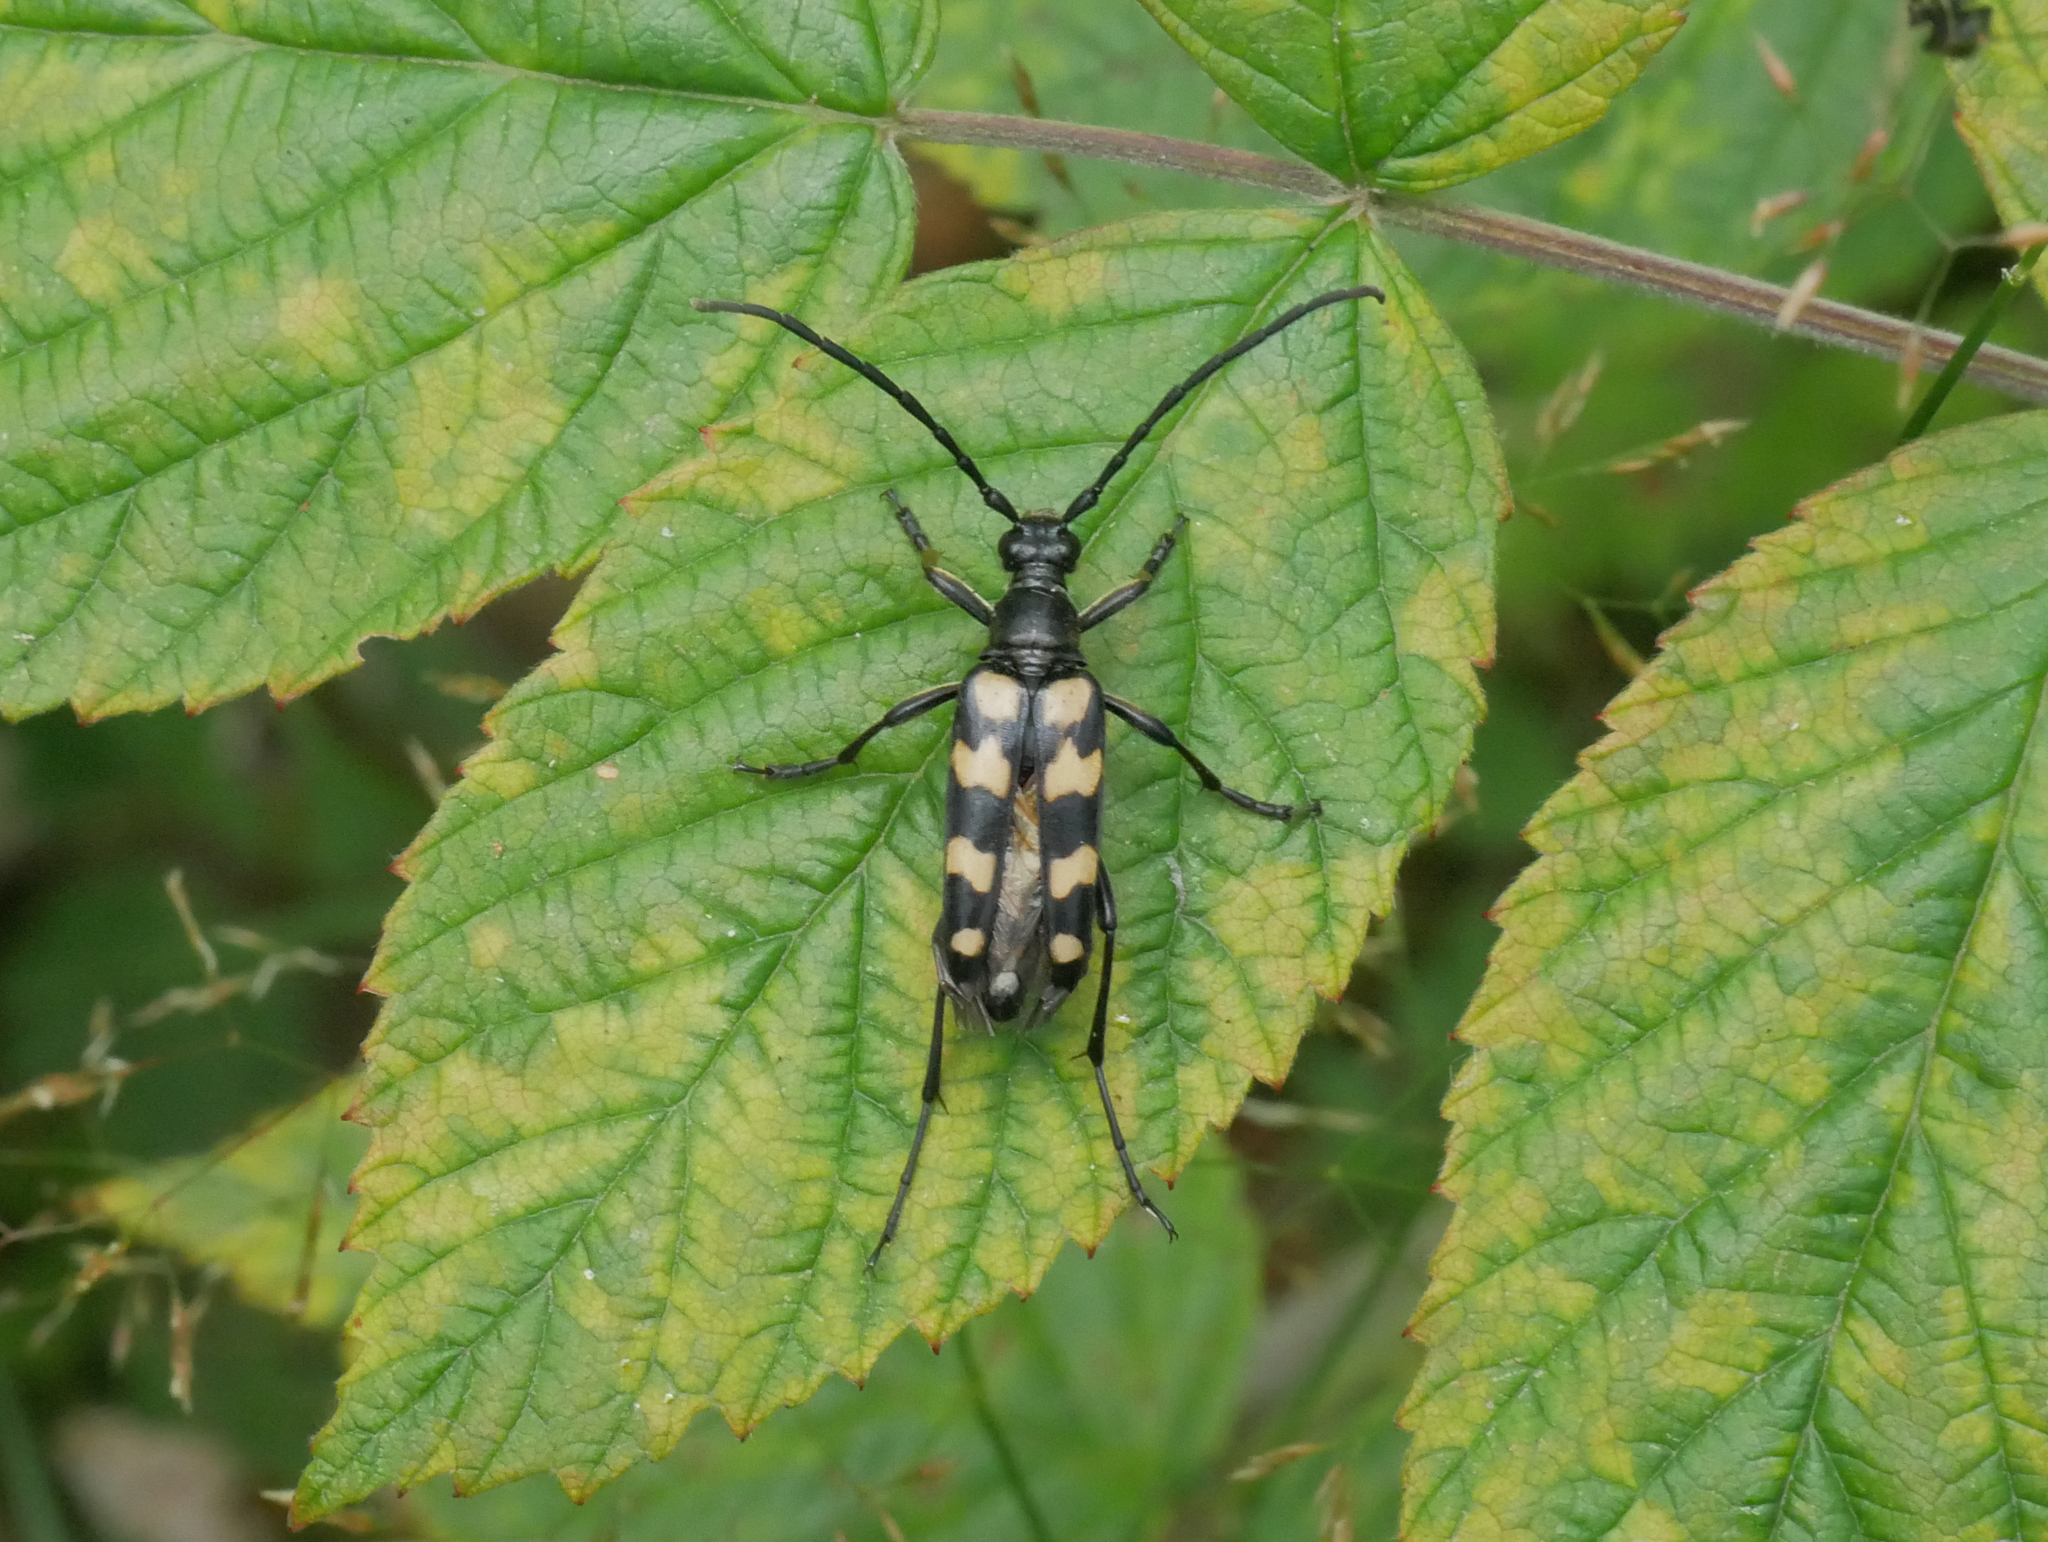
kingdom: Animalia
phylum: Arthropoda
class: Insecta
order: Coleoptera
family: Cerambycidae
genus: Leptura
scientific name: Leptura quadrifasciata
